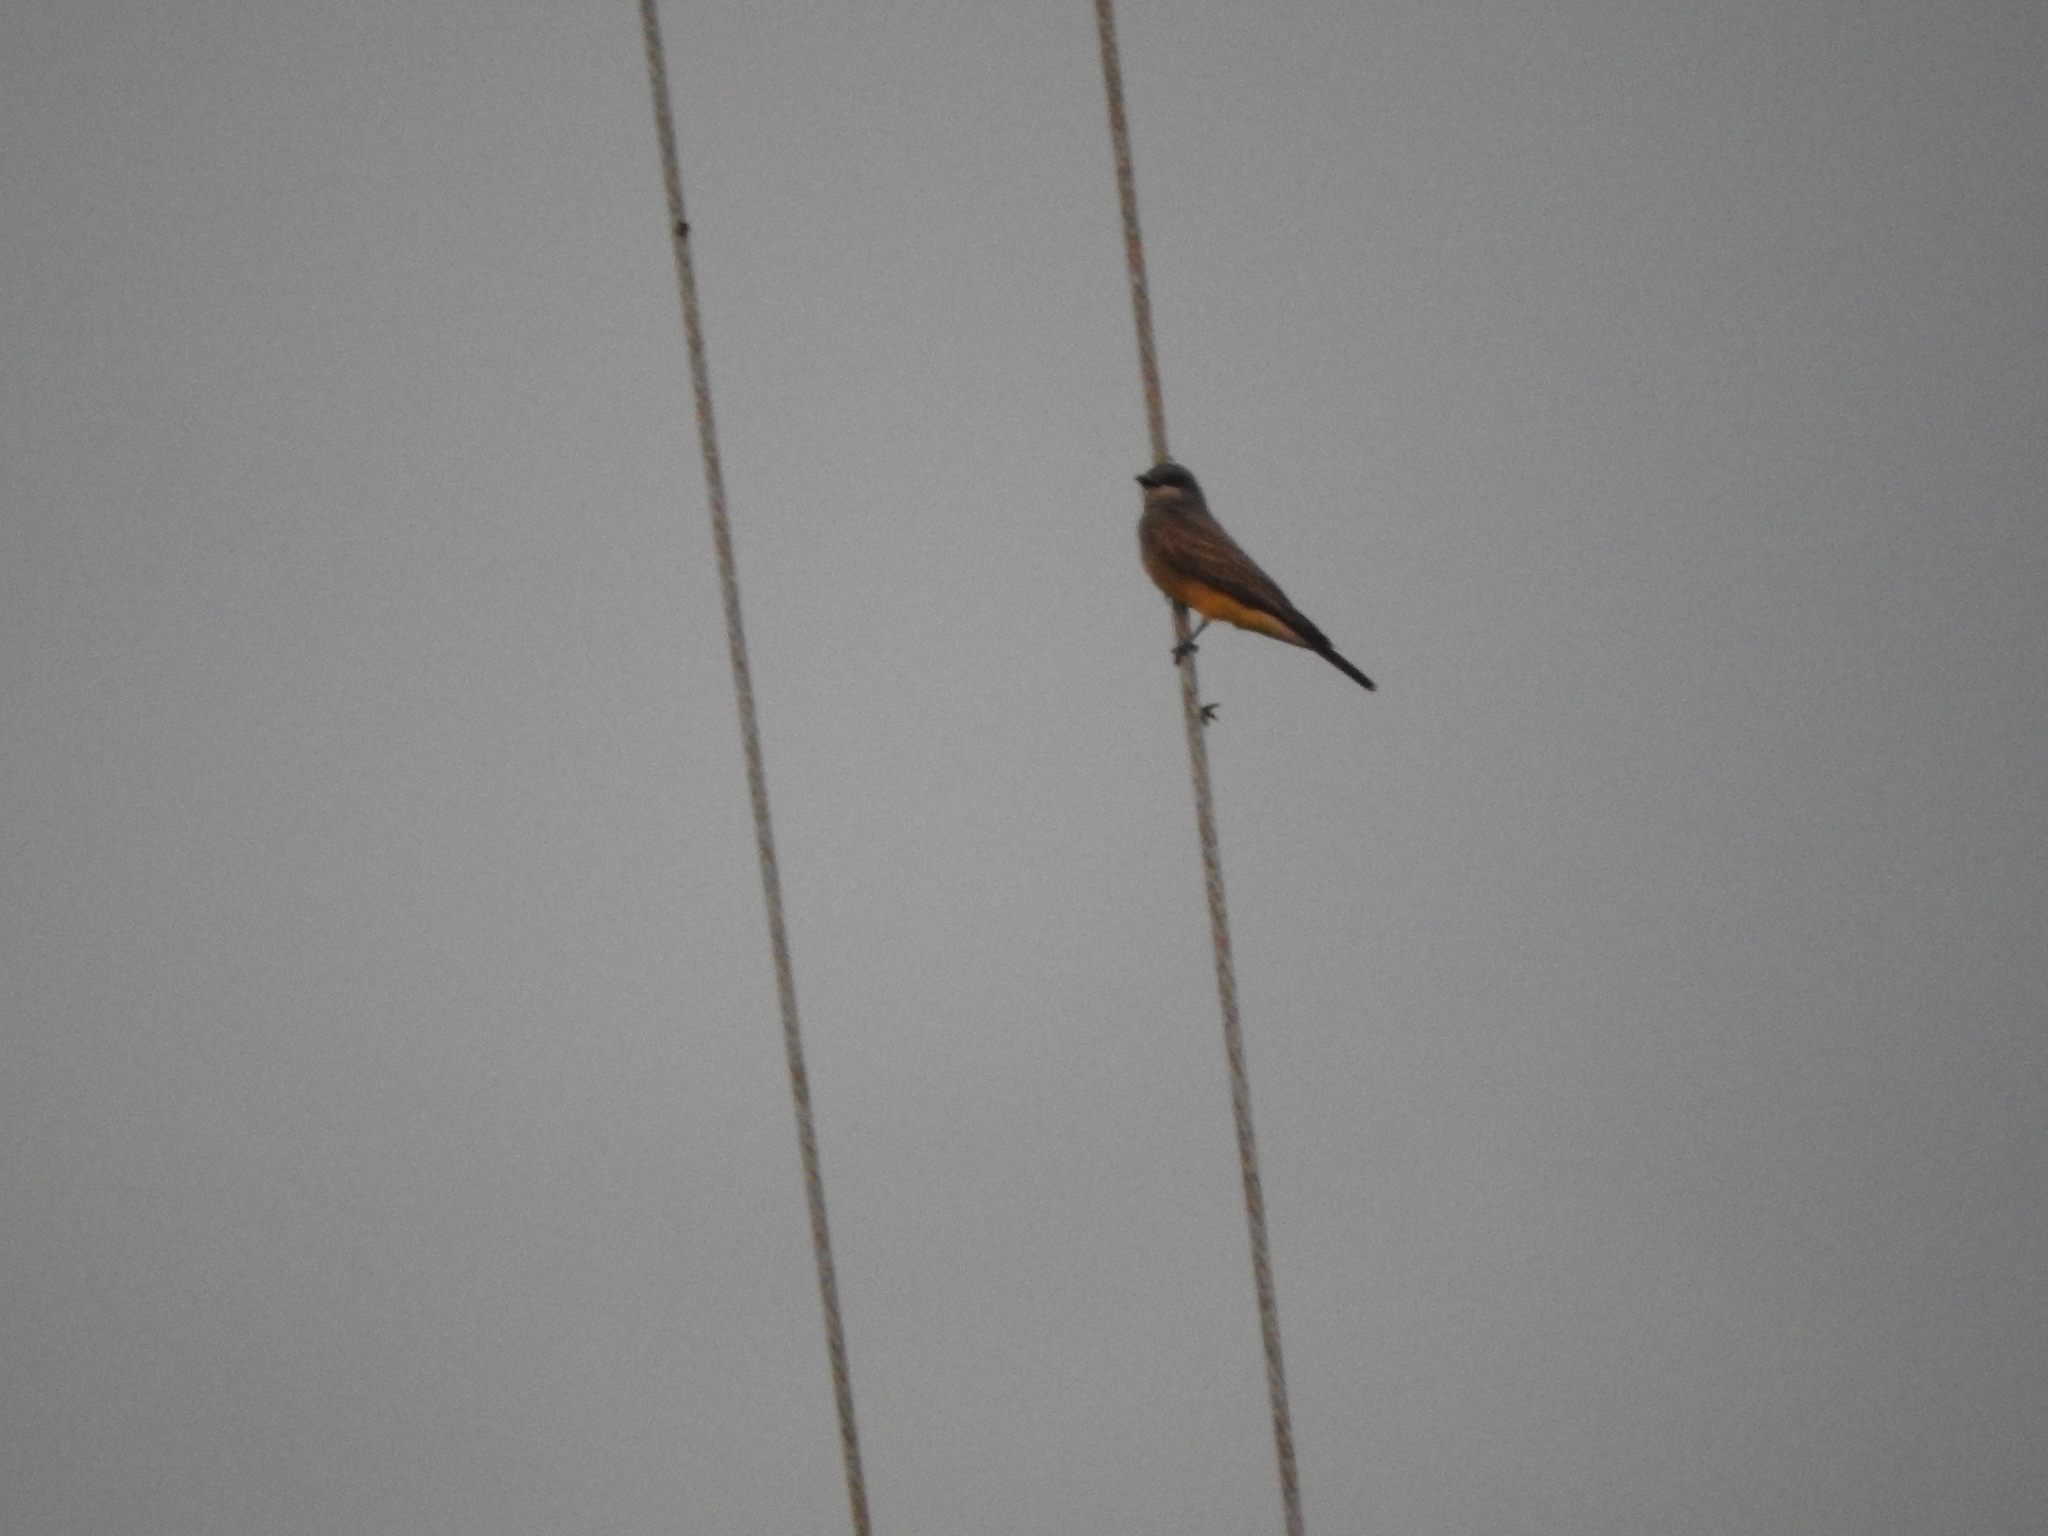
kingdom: Animalia
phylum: Chordata
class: Aves
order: Passeriformes
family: Tyrannidae
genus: Tyrannus
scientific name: Tyrannus vociferans
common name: Cassin's kingbird
